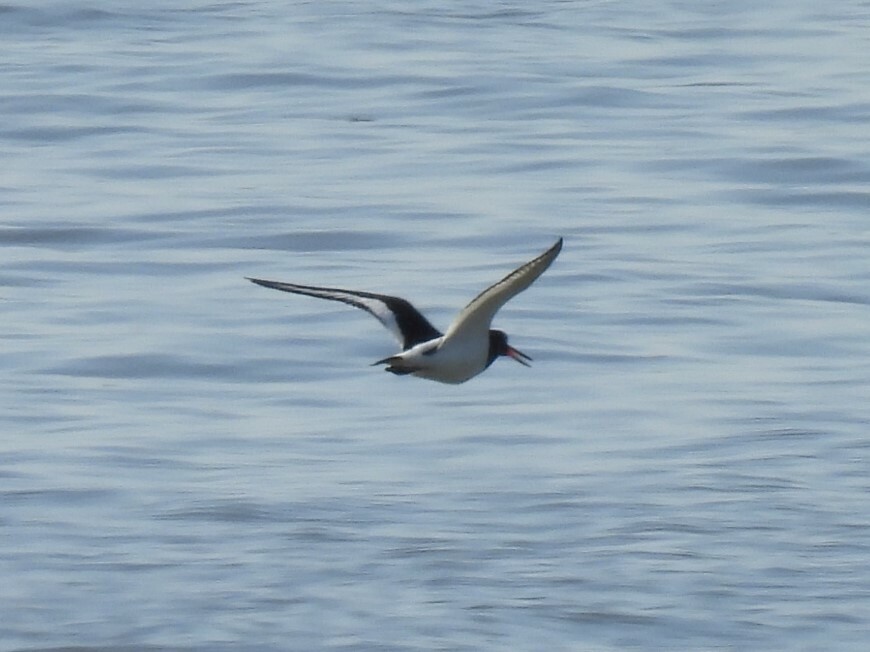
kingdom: Animalia
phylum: Chordata
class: Aves
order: Charadriiformes
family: Haematopodidae
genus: Haematopus
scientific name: Haematopus ostralegus
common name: Eurasian oystercatcher
